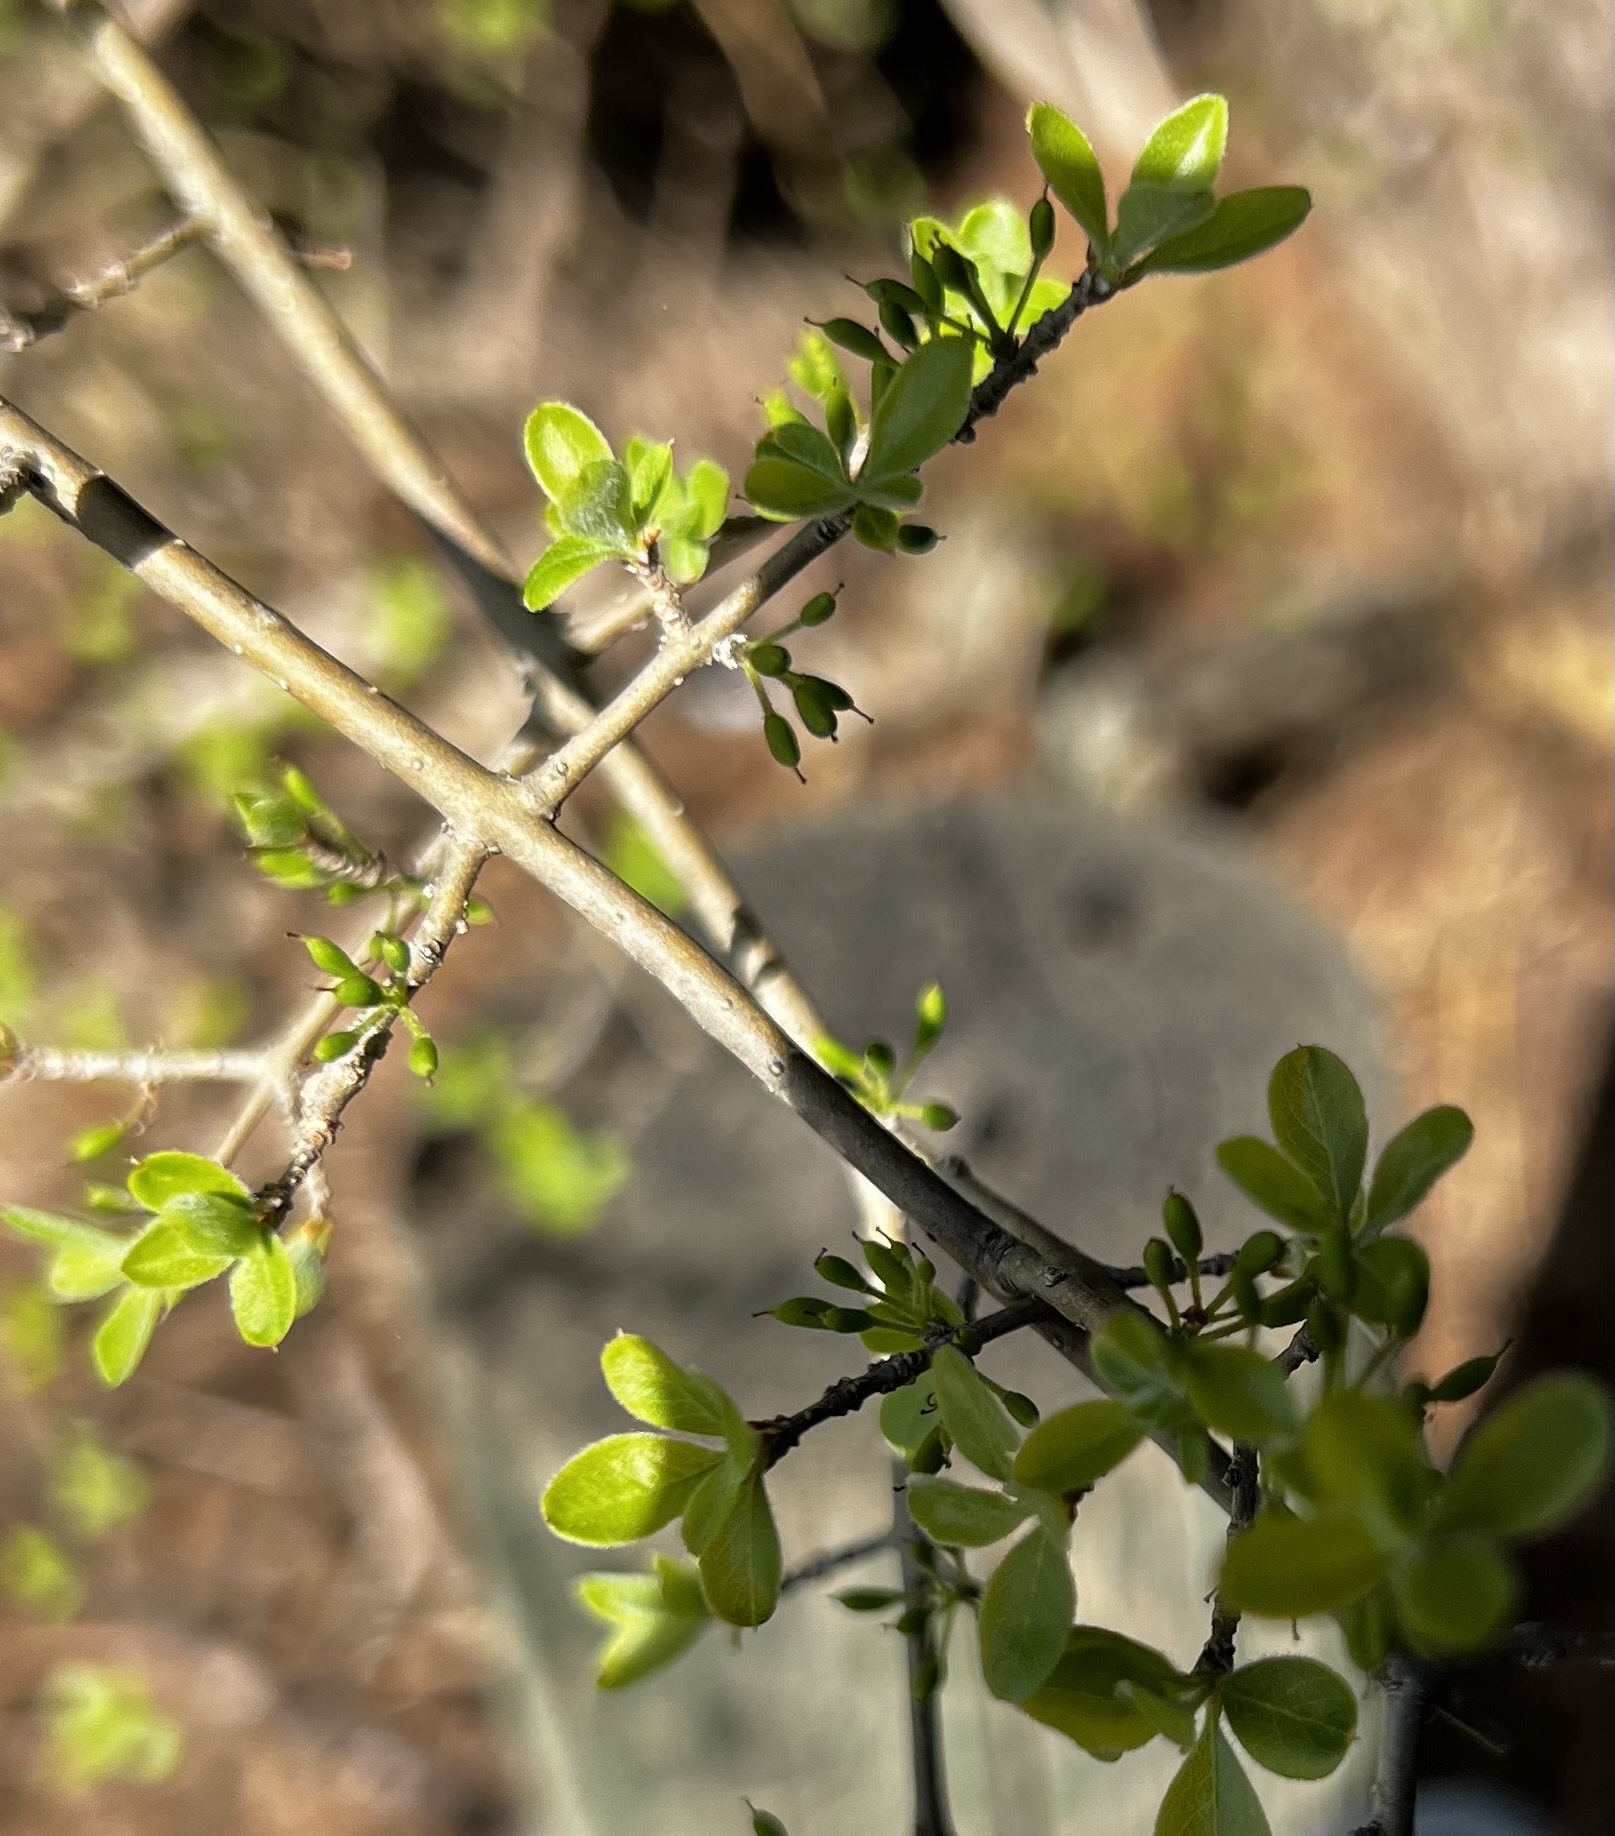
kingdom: Plantae
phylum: Tracheophyta
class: Magnoliopsida
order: Lamiales
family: Oleaceae
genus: Forestiera
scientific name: Forestiera pubescens
